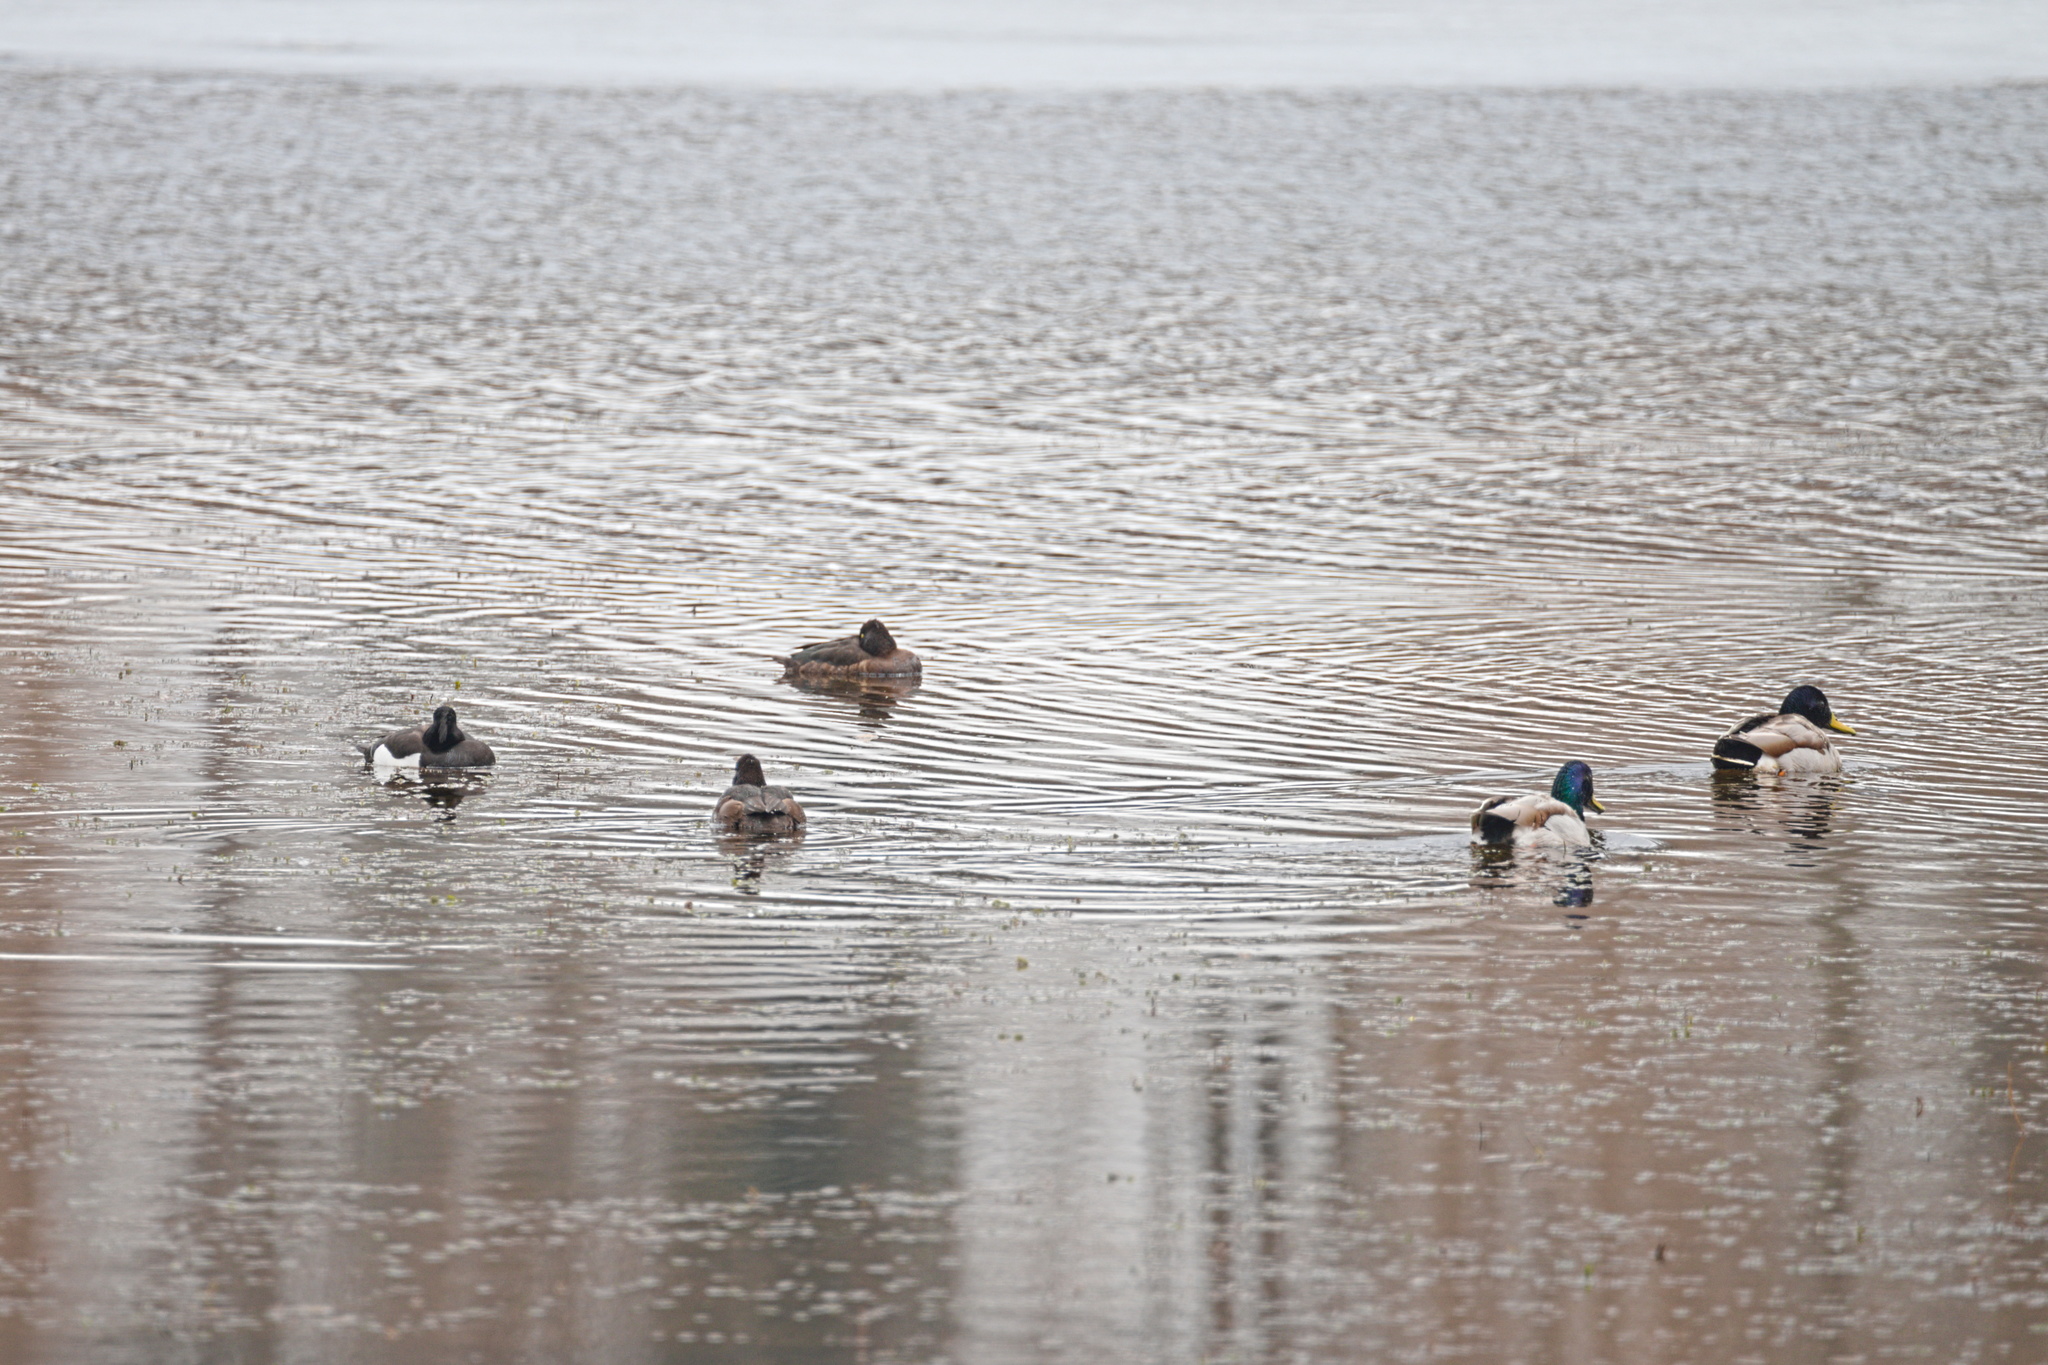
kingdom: Animalia
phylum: Chordata
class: Aves
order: Anseriformes
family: Anatidae
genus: Aythya
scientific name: Aythya fuligula
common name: Tufted duck
